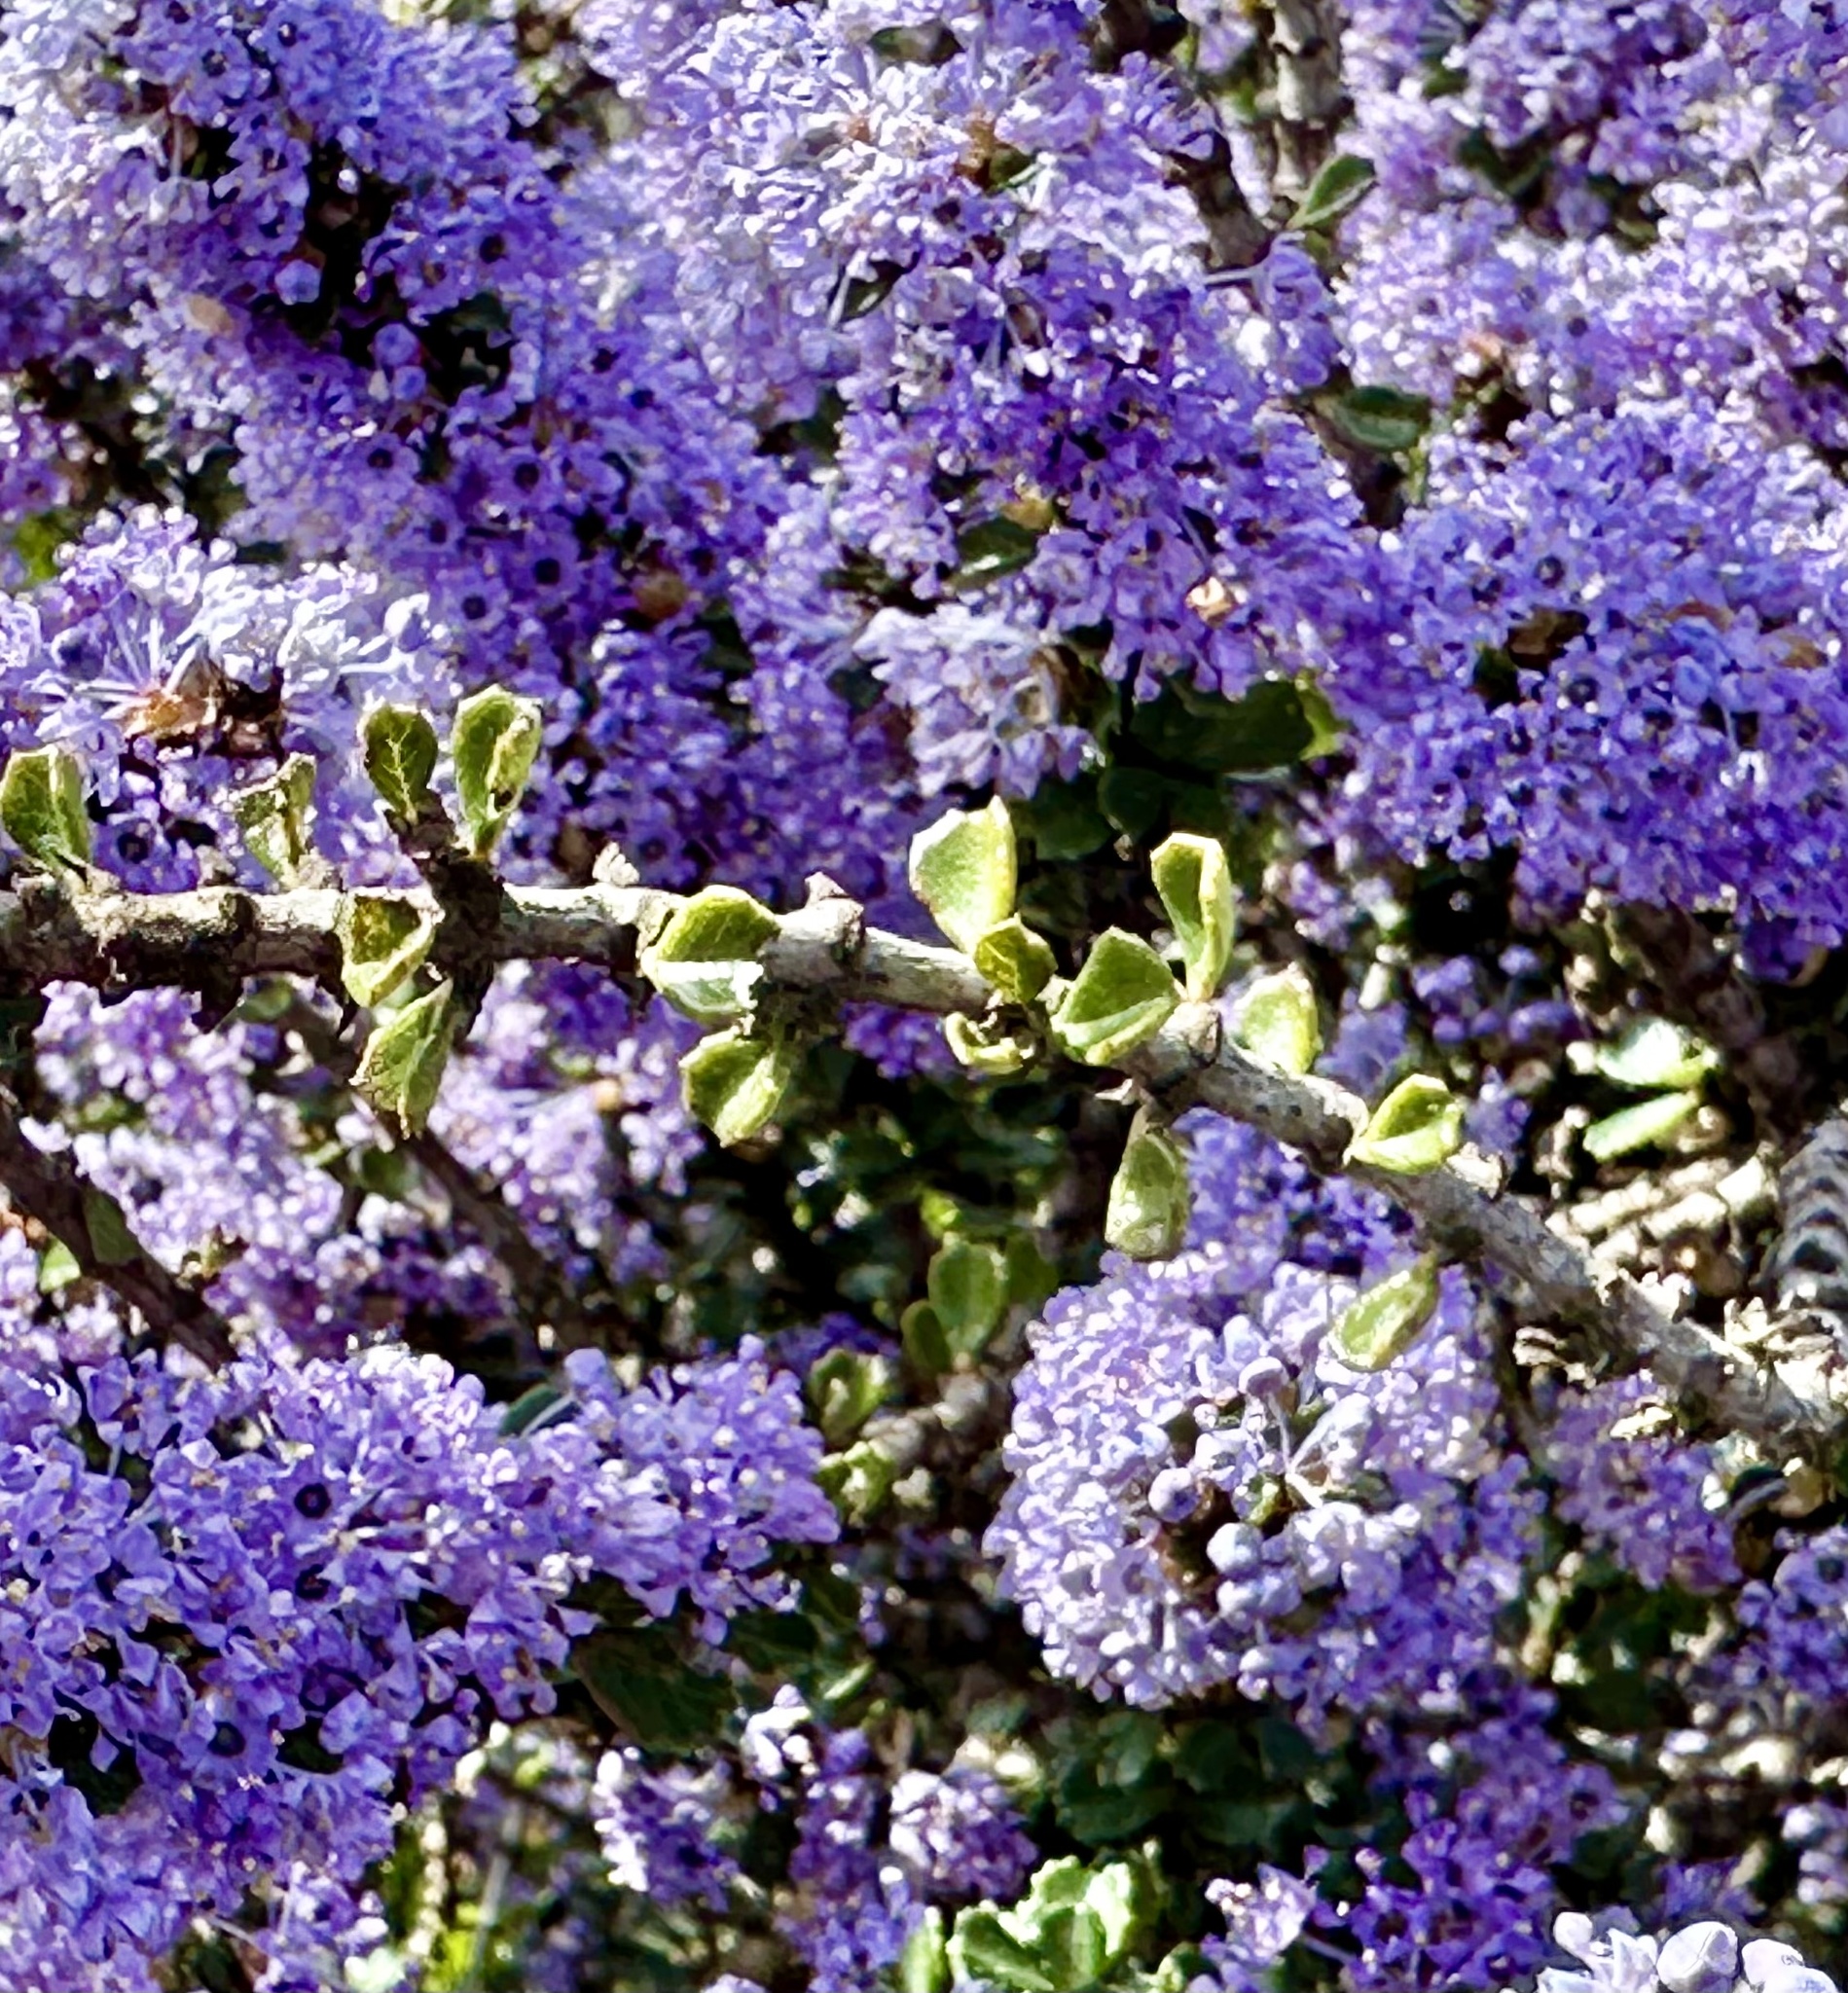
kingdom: Plantae
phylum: Tracheophyta
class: Magnoliopsida
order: Rosales
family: Rhamnaceae
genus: Ceanothus
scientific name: Ceanothus cuneatus
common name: Cuneate ceanothus
